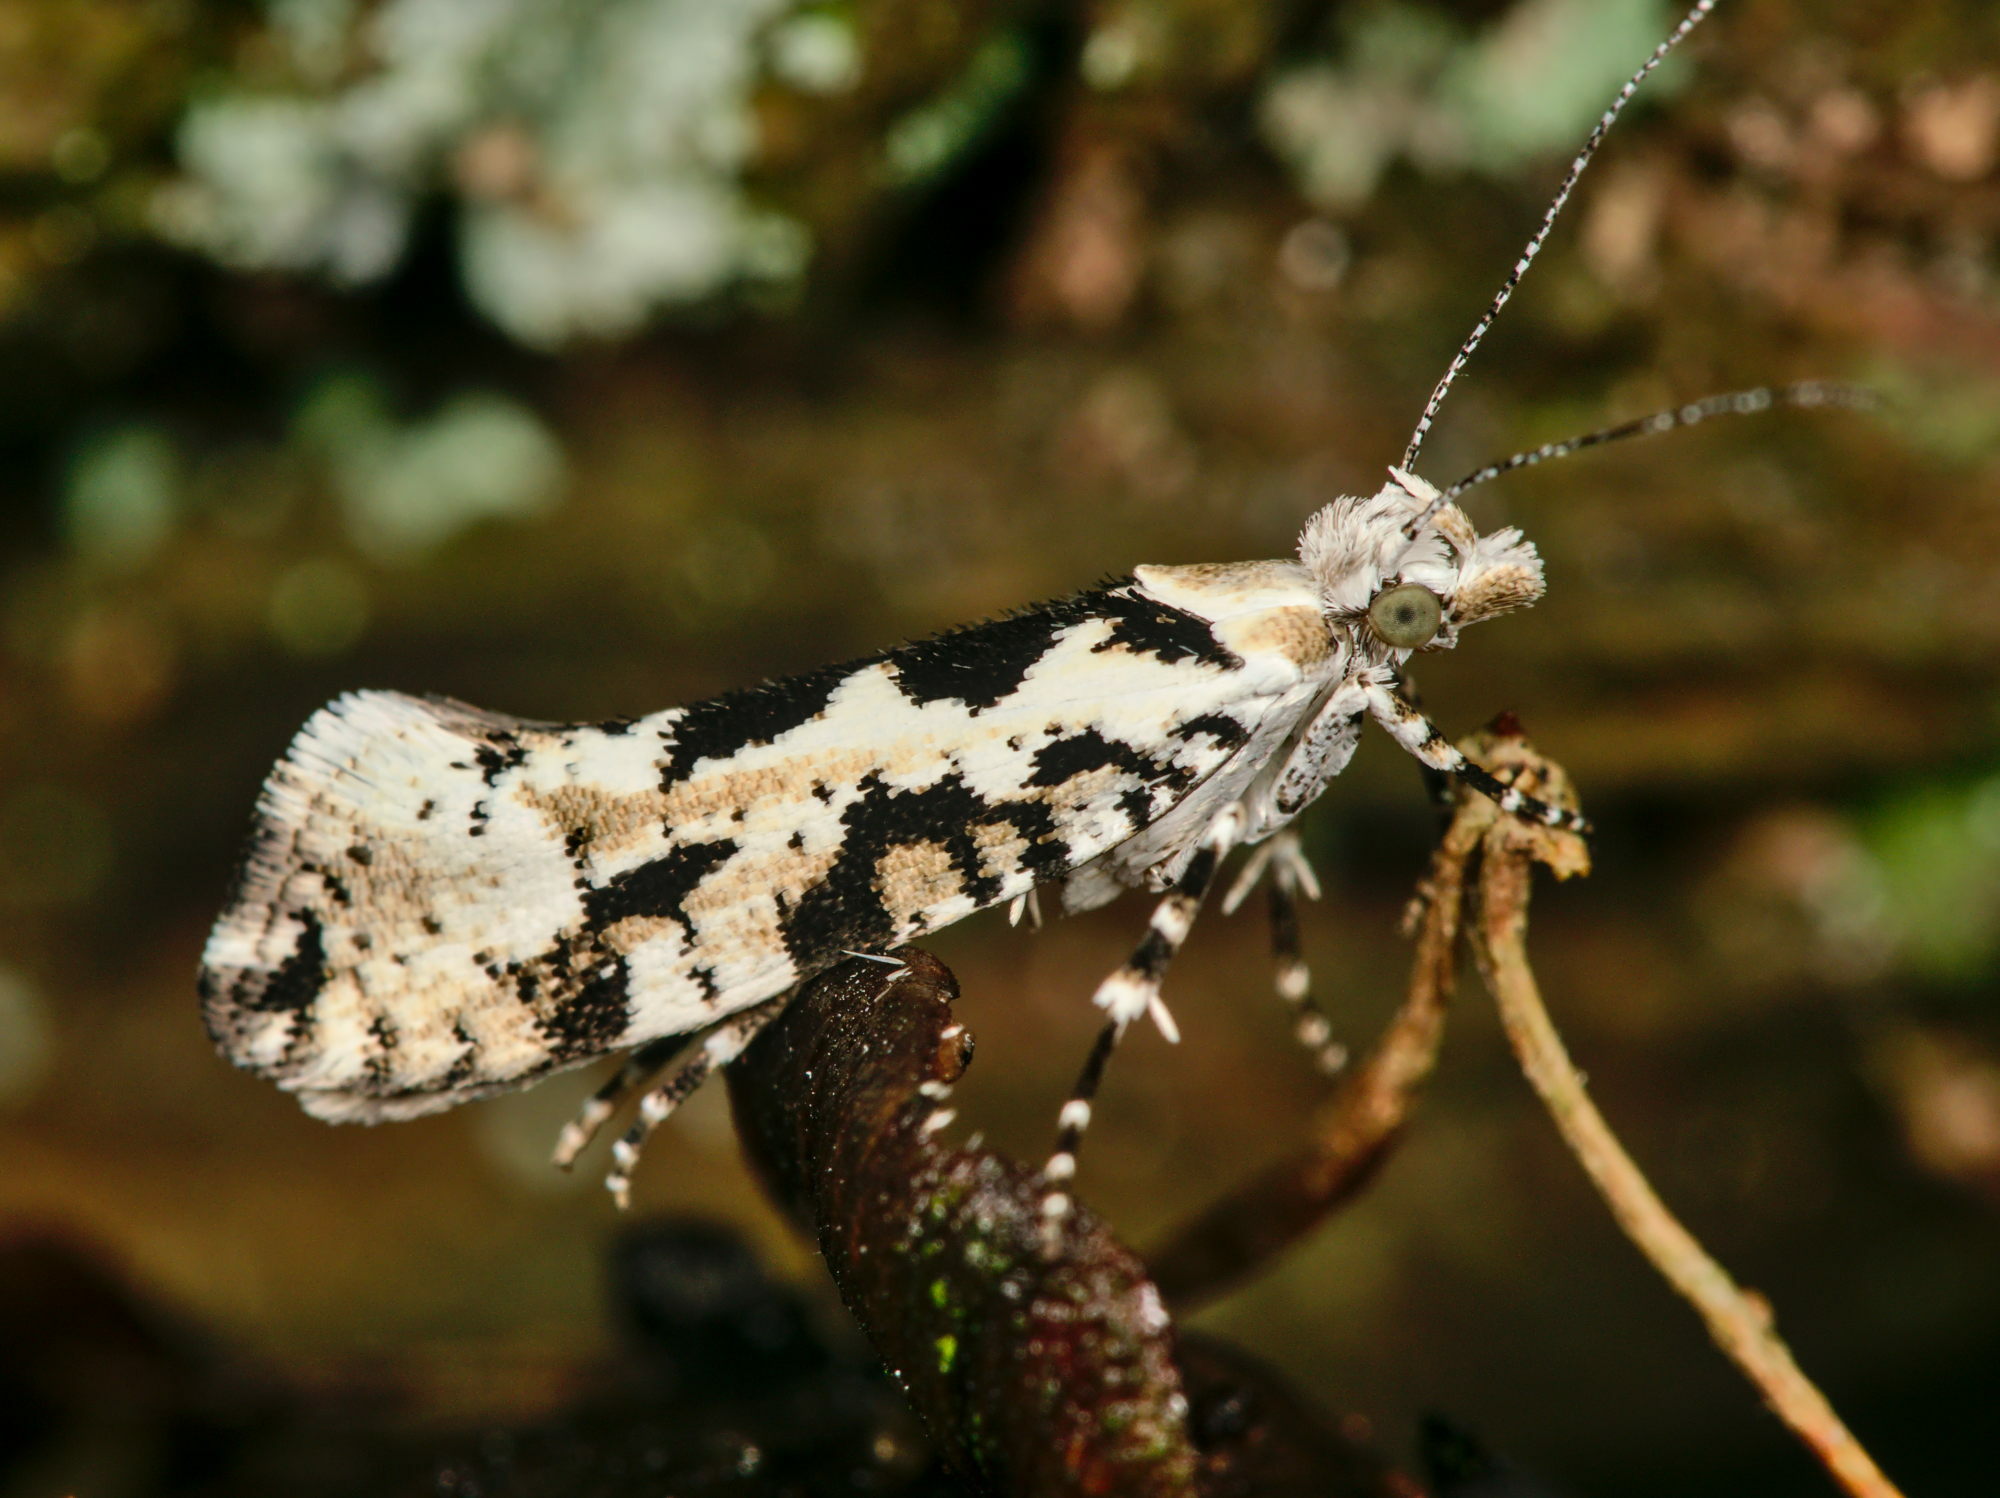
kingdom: Animalia
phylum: Arthropoda
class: Insecta
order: Lepidoptera
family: Plutellidae
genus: Ypsolophus
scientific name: Ypsolophus sequella
